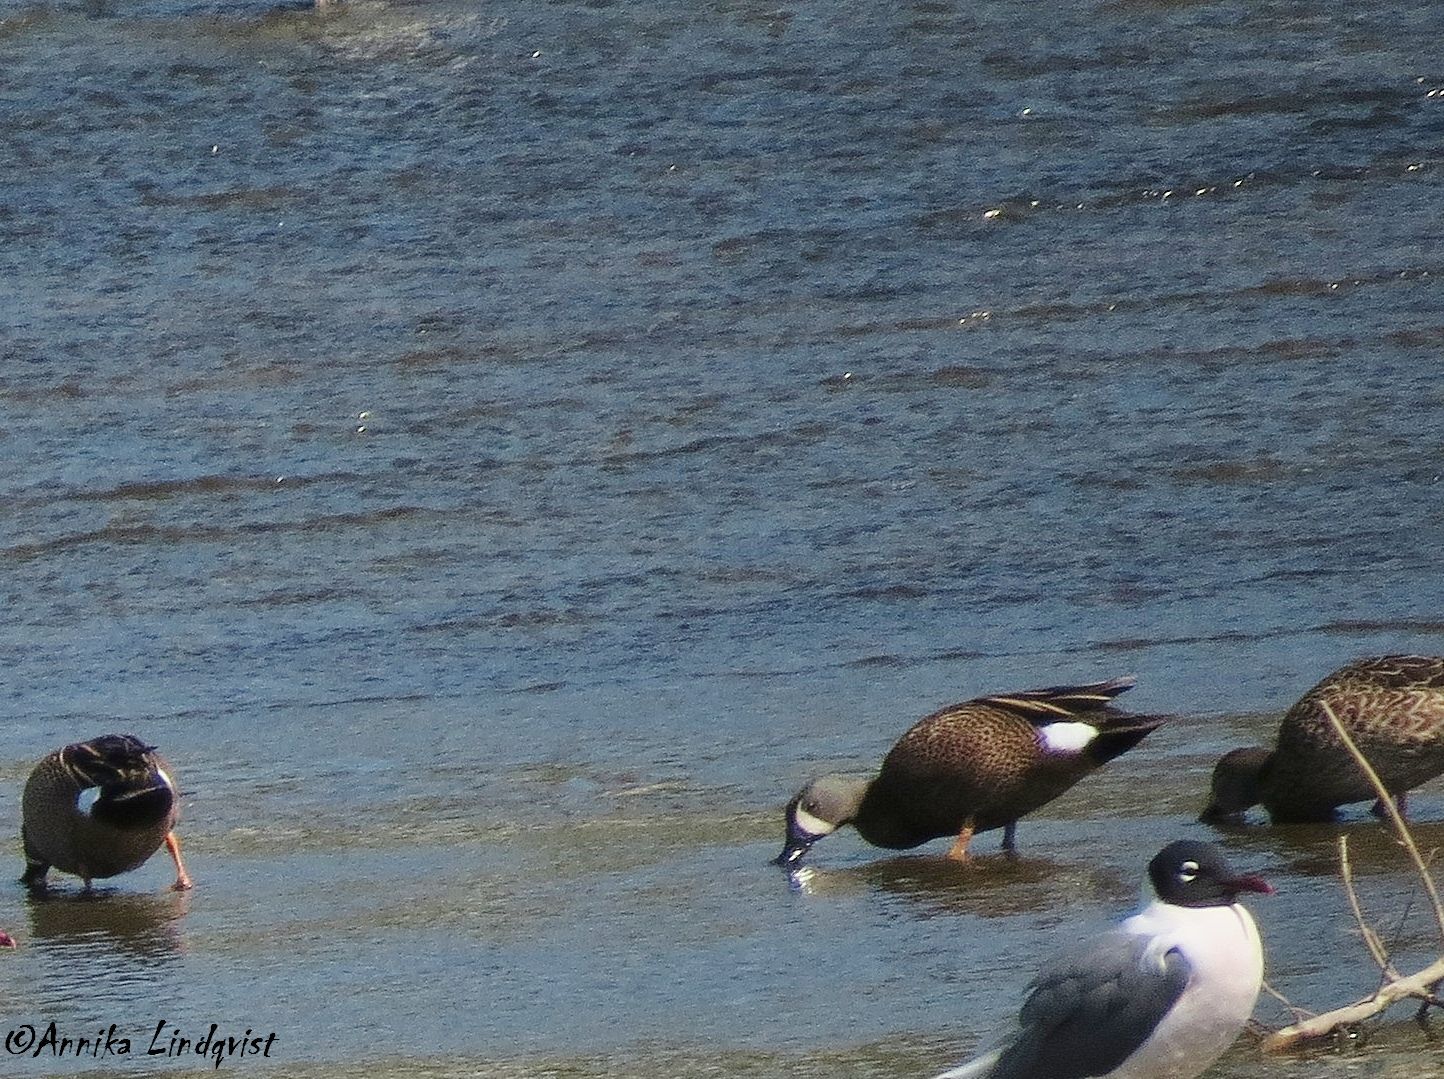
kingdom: Animalia
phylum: Chordata
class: Aves
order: Anseriformes
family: Anatidae
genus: Spatula
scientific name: Spatula discors
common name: Blue-winged teal
